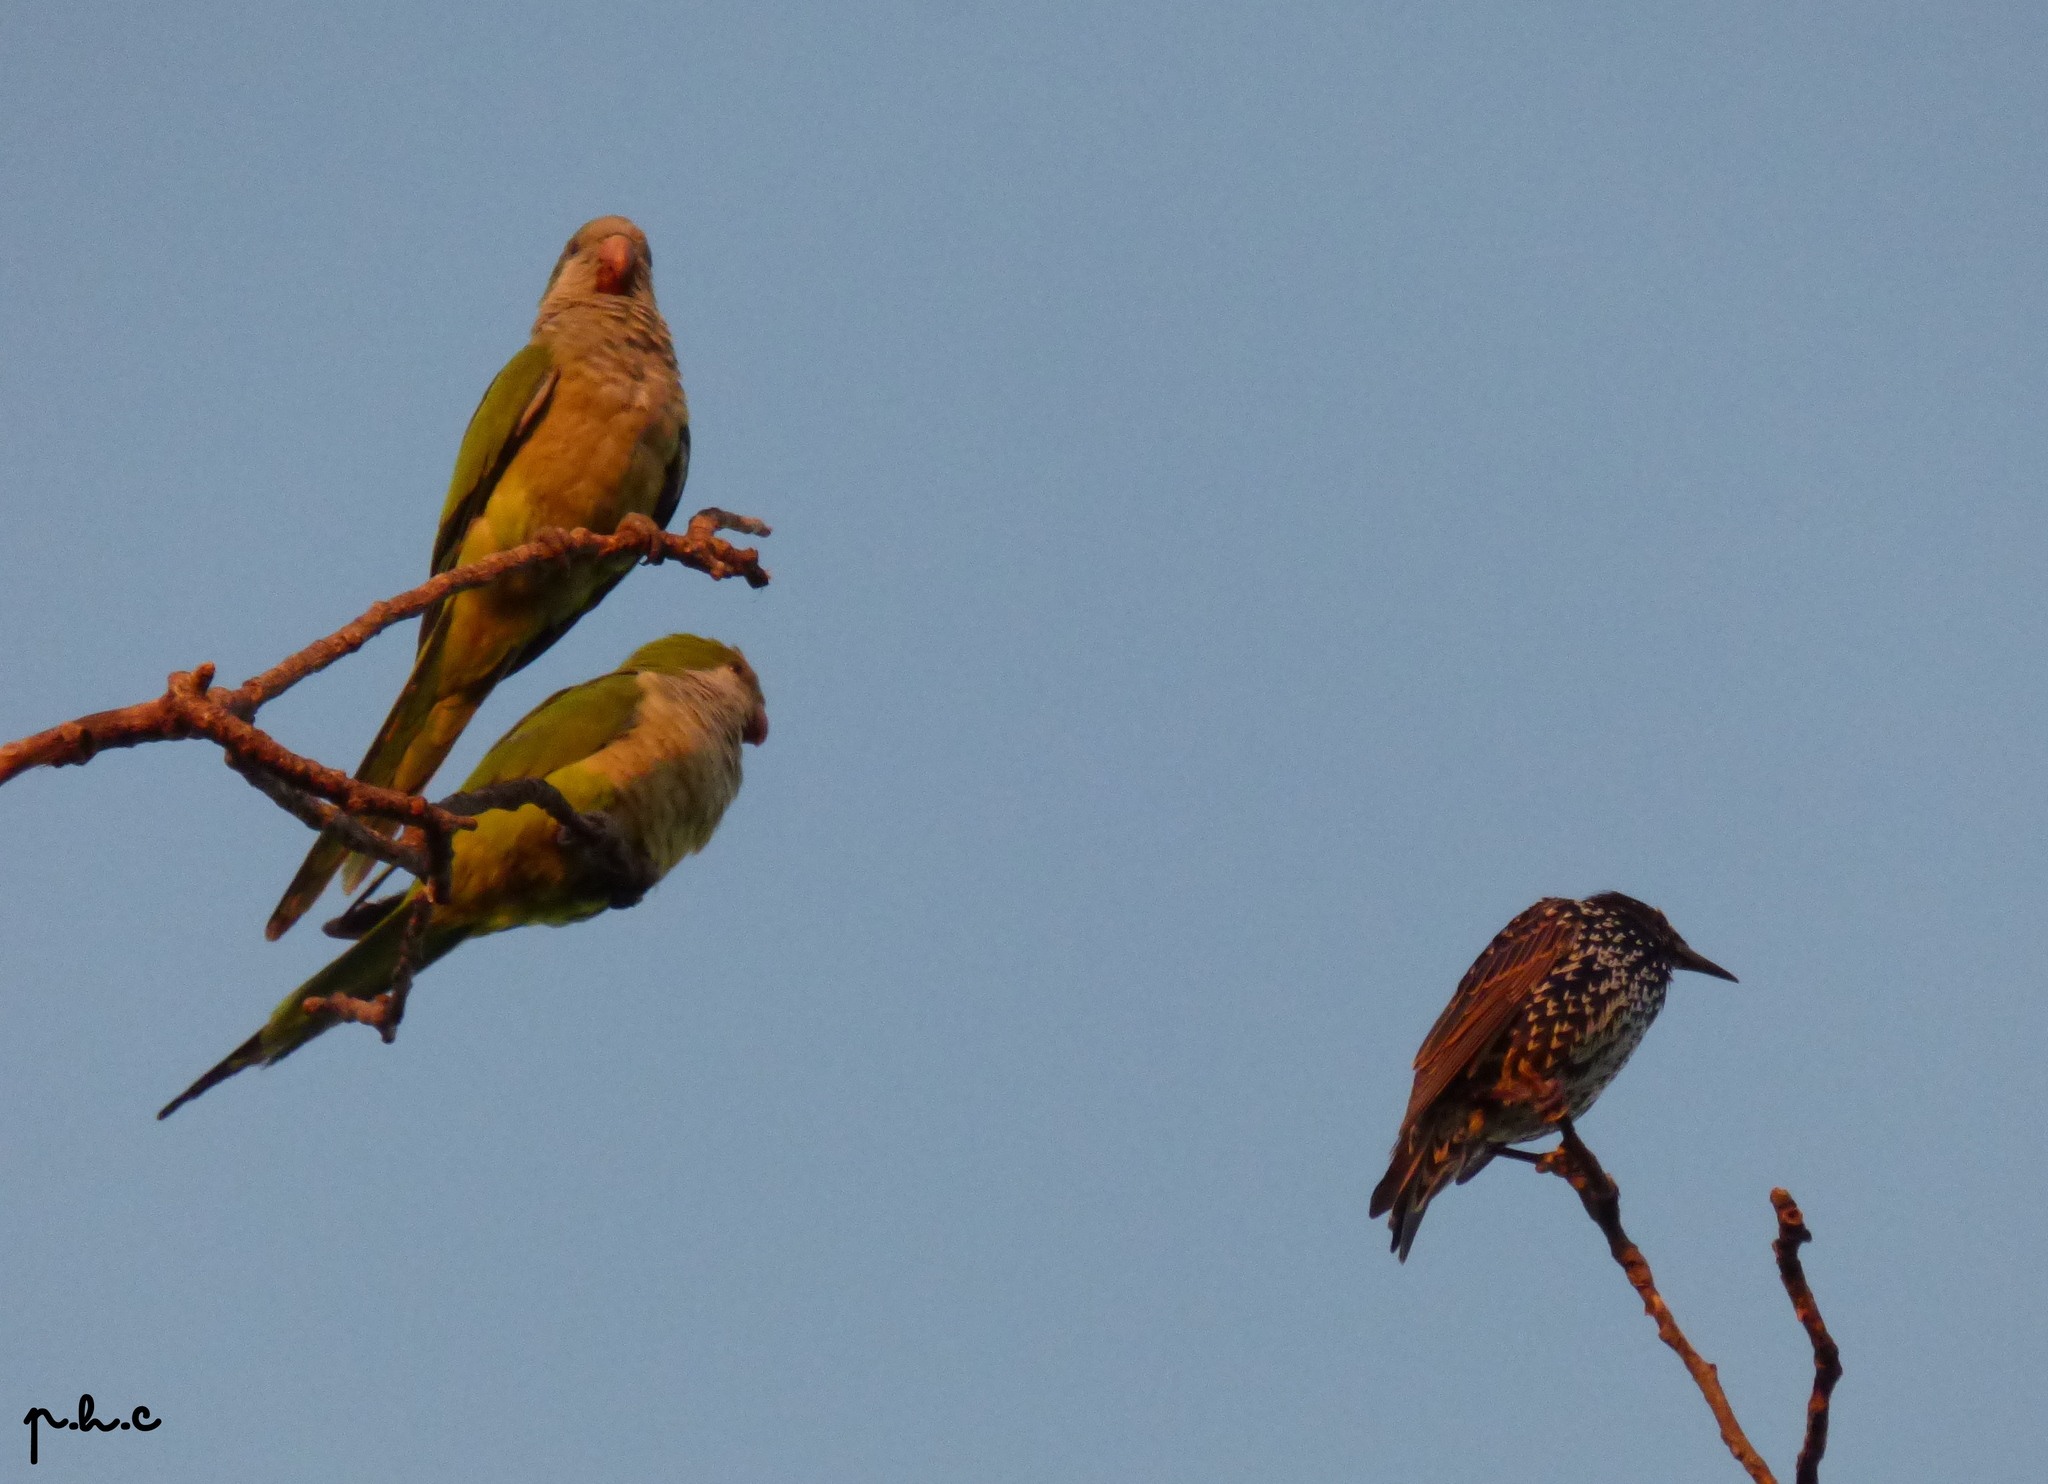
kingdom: Animalia
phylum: Chordata
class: Aves
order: Psittaciformes
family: Psittacidae
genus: Myiopsitta
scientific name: Myiopsitta monachus
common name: Monk parakeet
